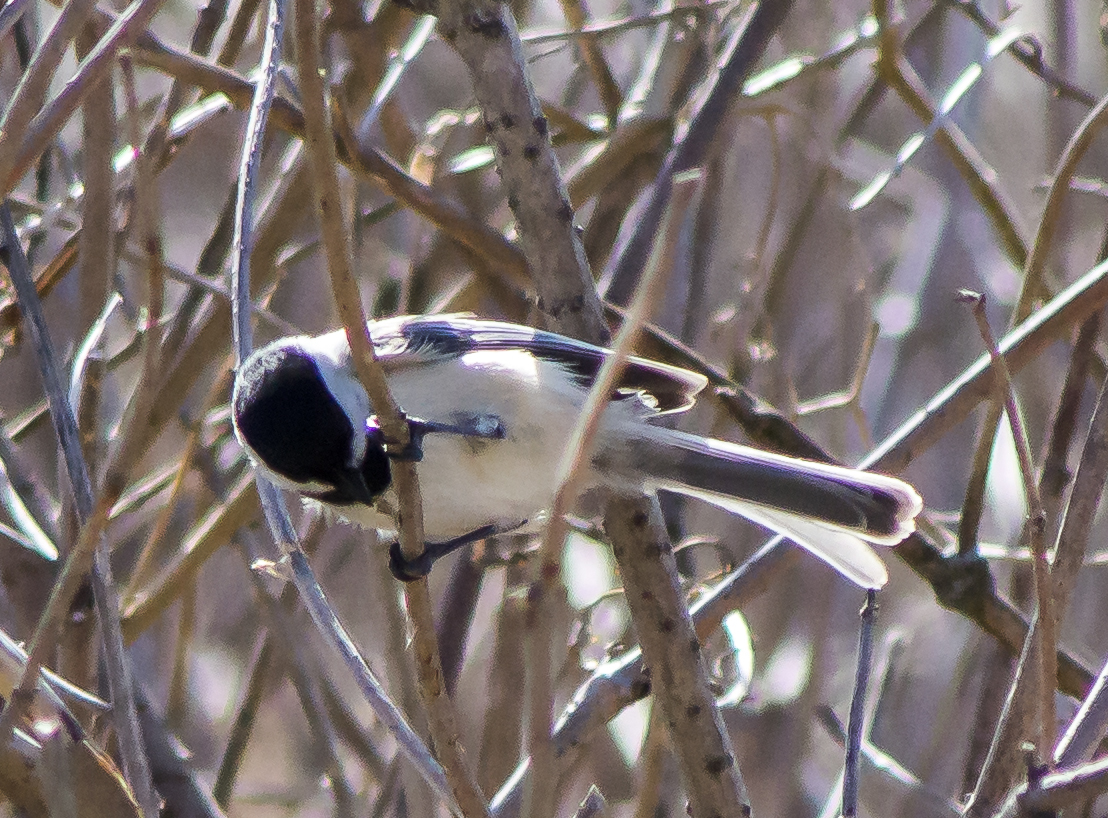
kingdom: Animalia
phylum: Chordata
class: Aves
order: Passeriformes
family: Paridae
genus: Poecile
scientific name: Poecile atricapillus
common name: Black-capped chickadee
